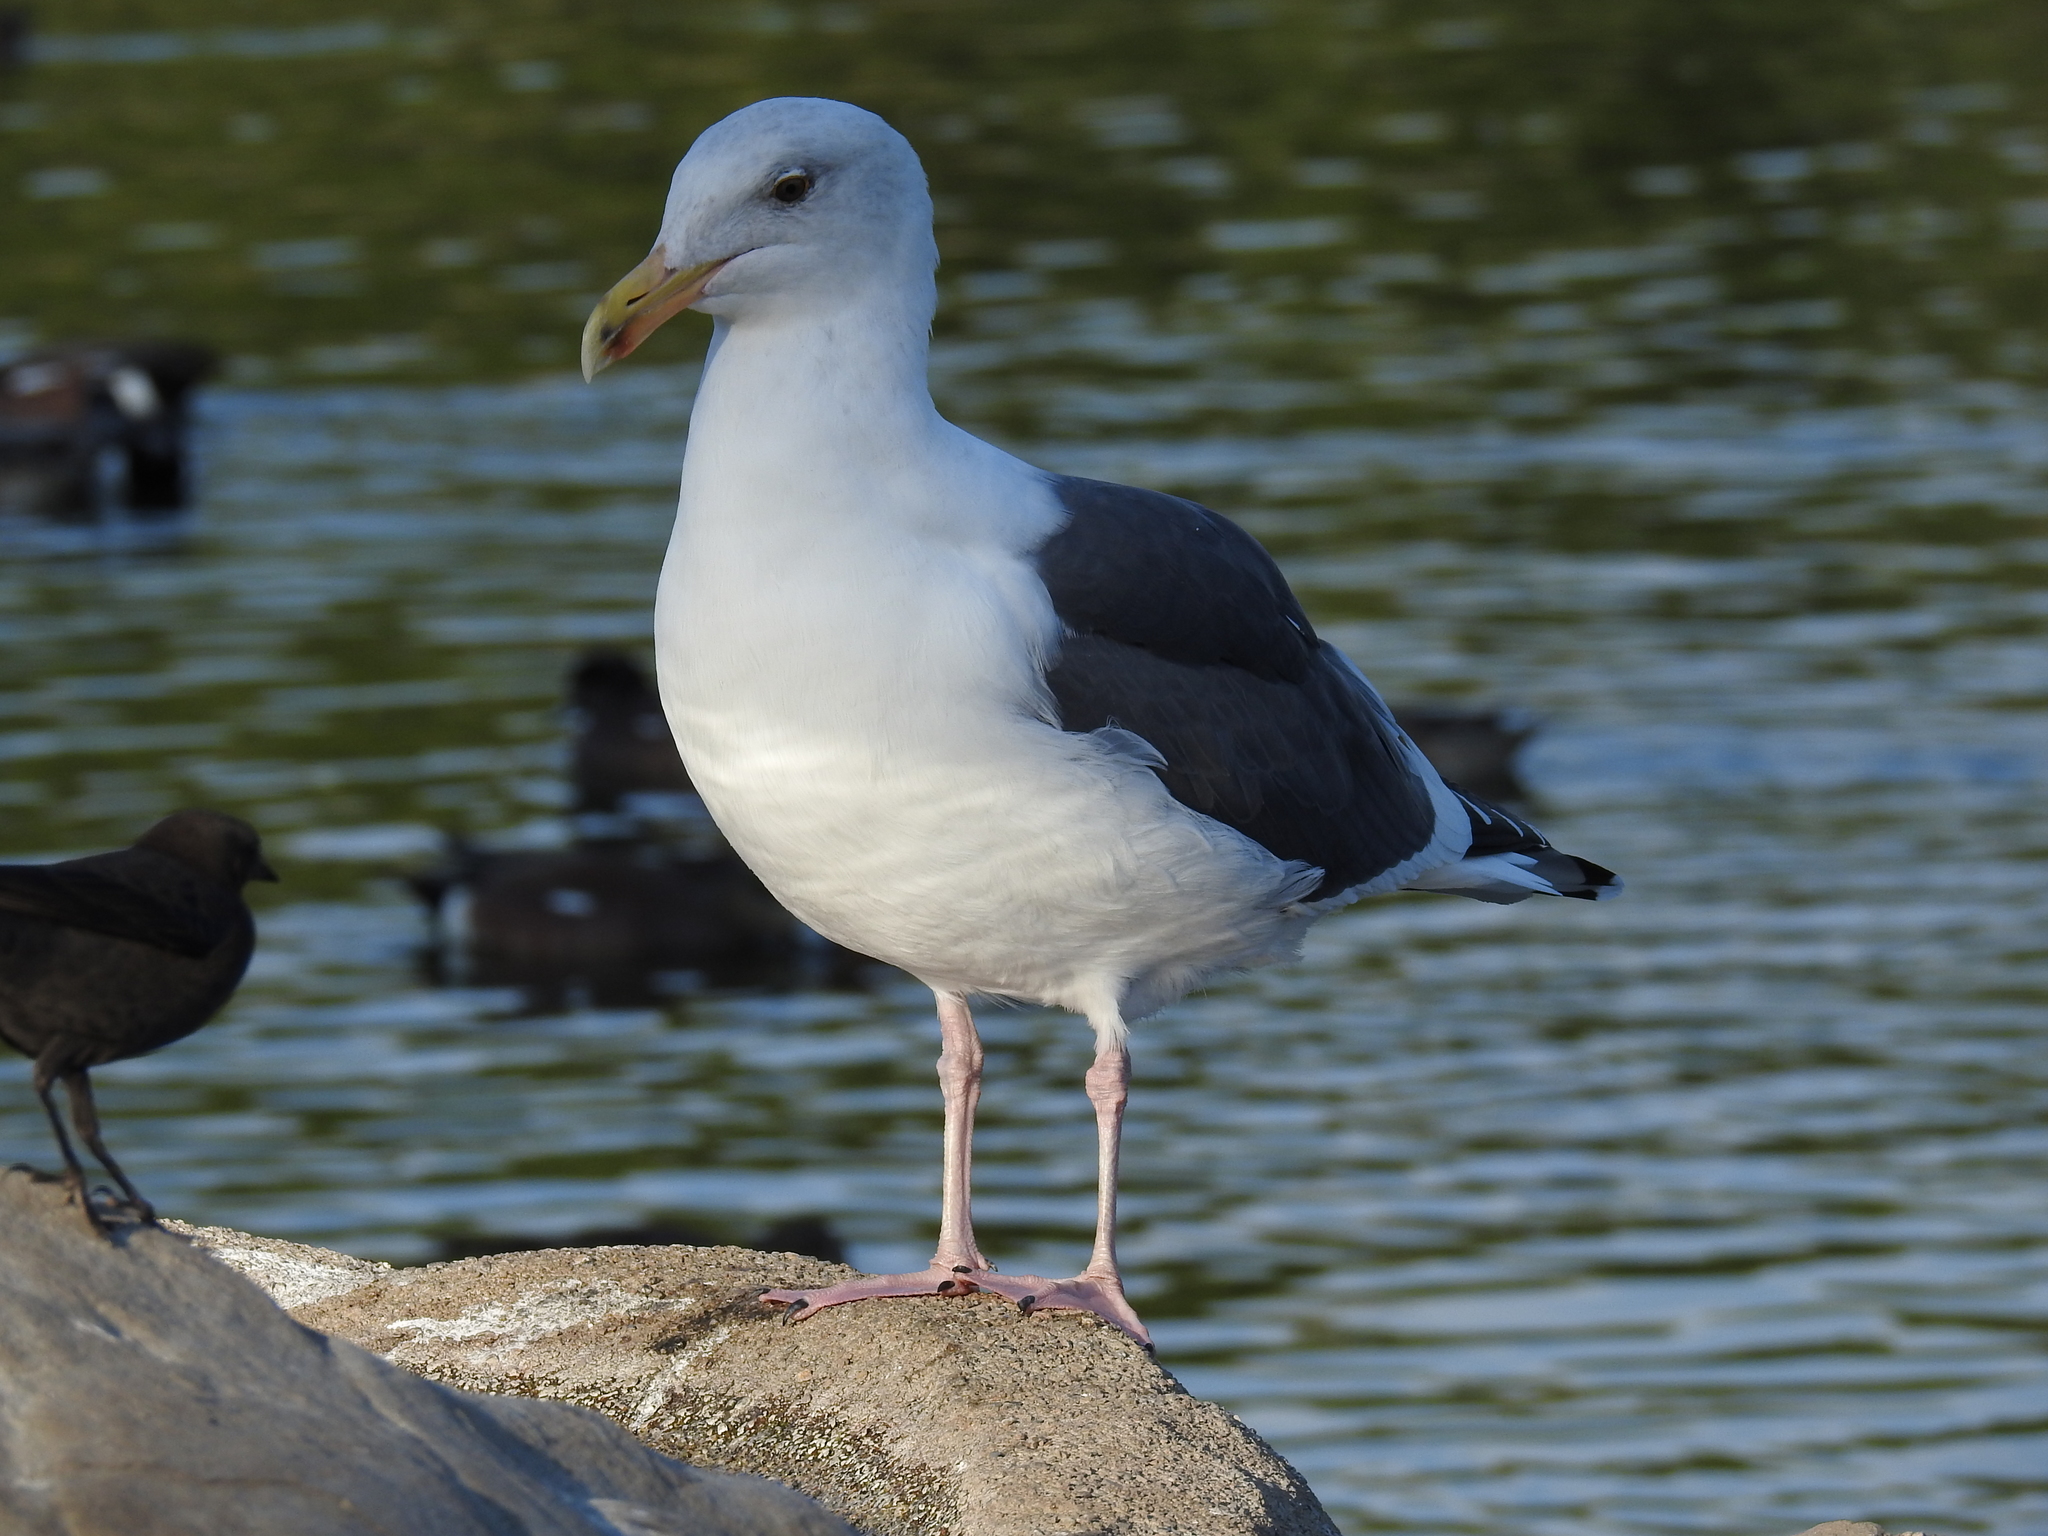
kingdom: Animalia
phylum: Chordata
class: Aves
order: Charadriiformes
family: Laridae
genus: Larus
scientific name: Larus occidentalis
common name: Western gull
